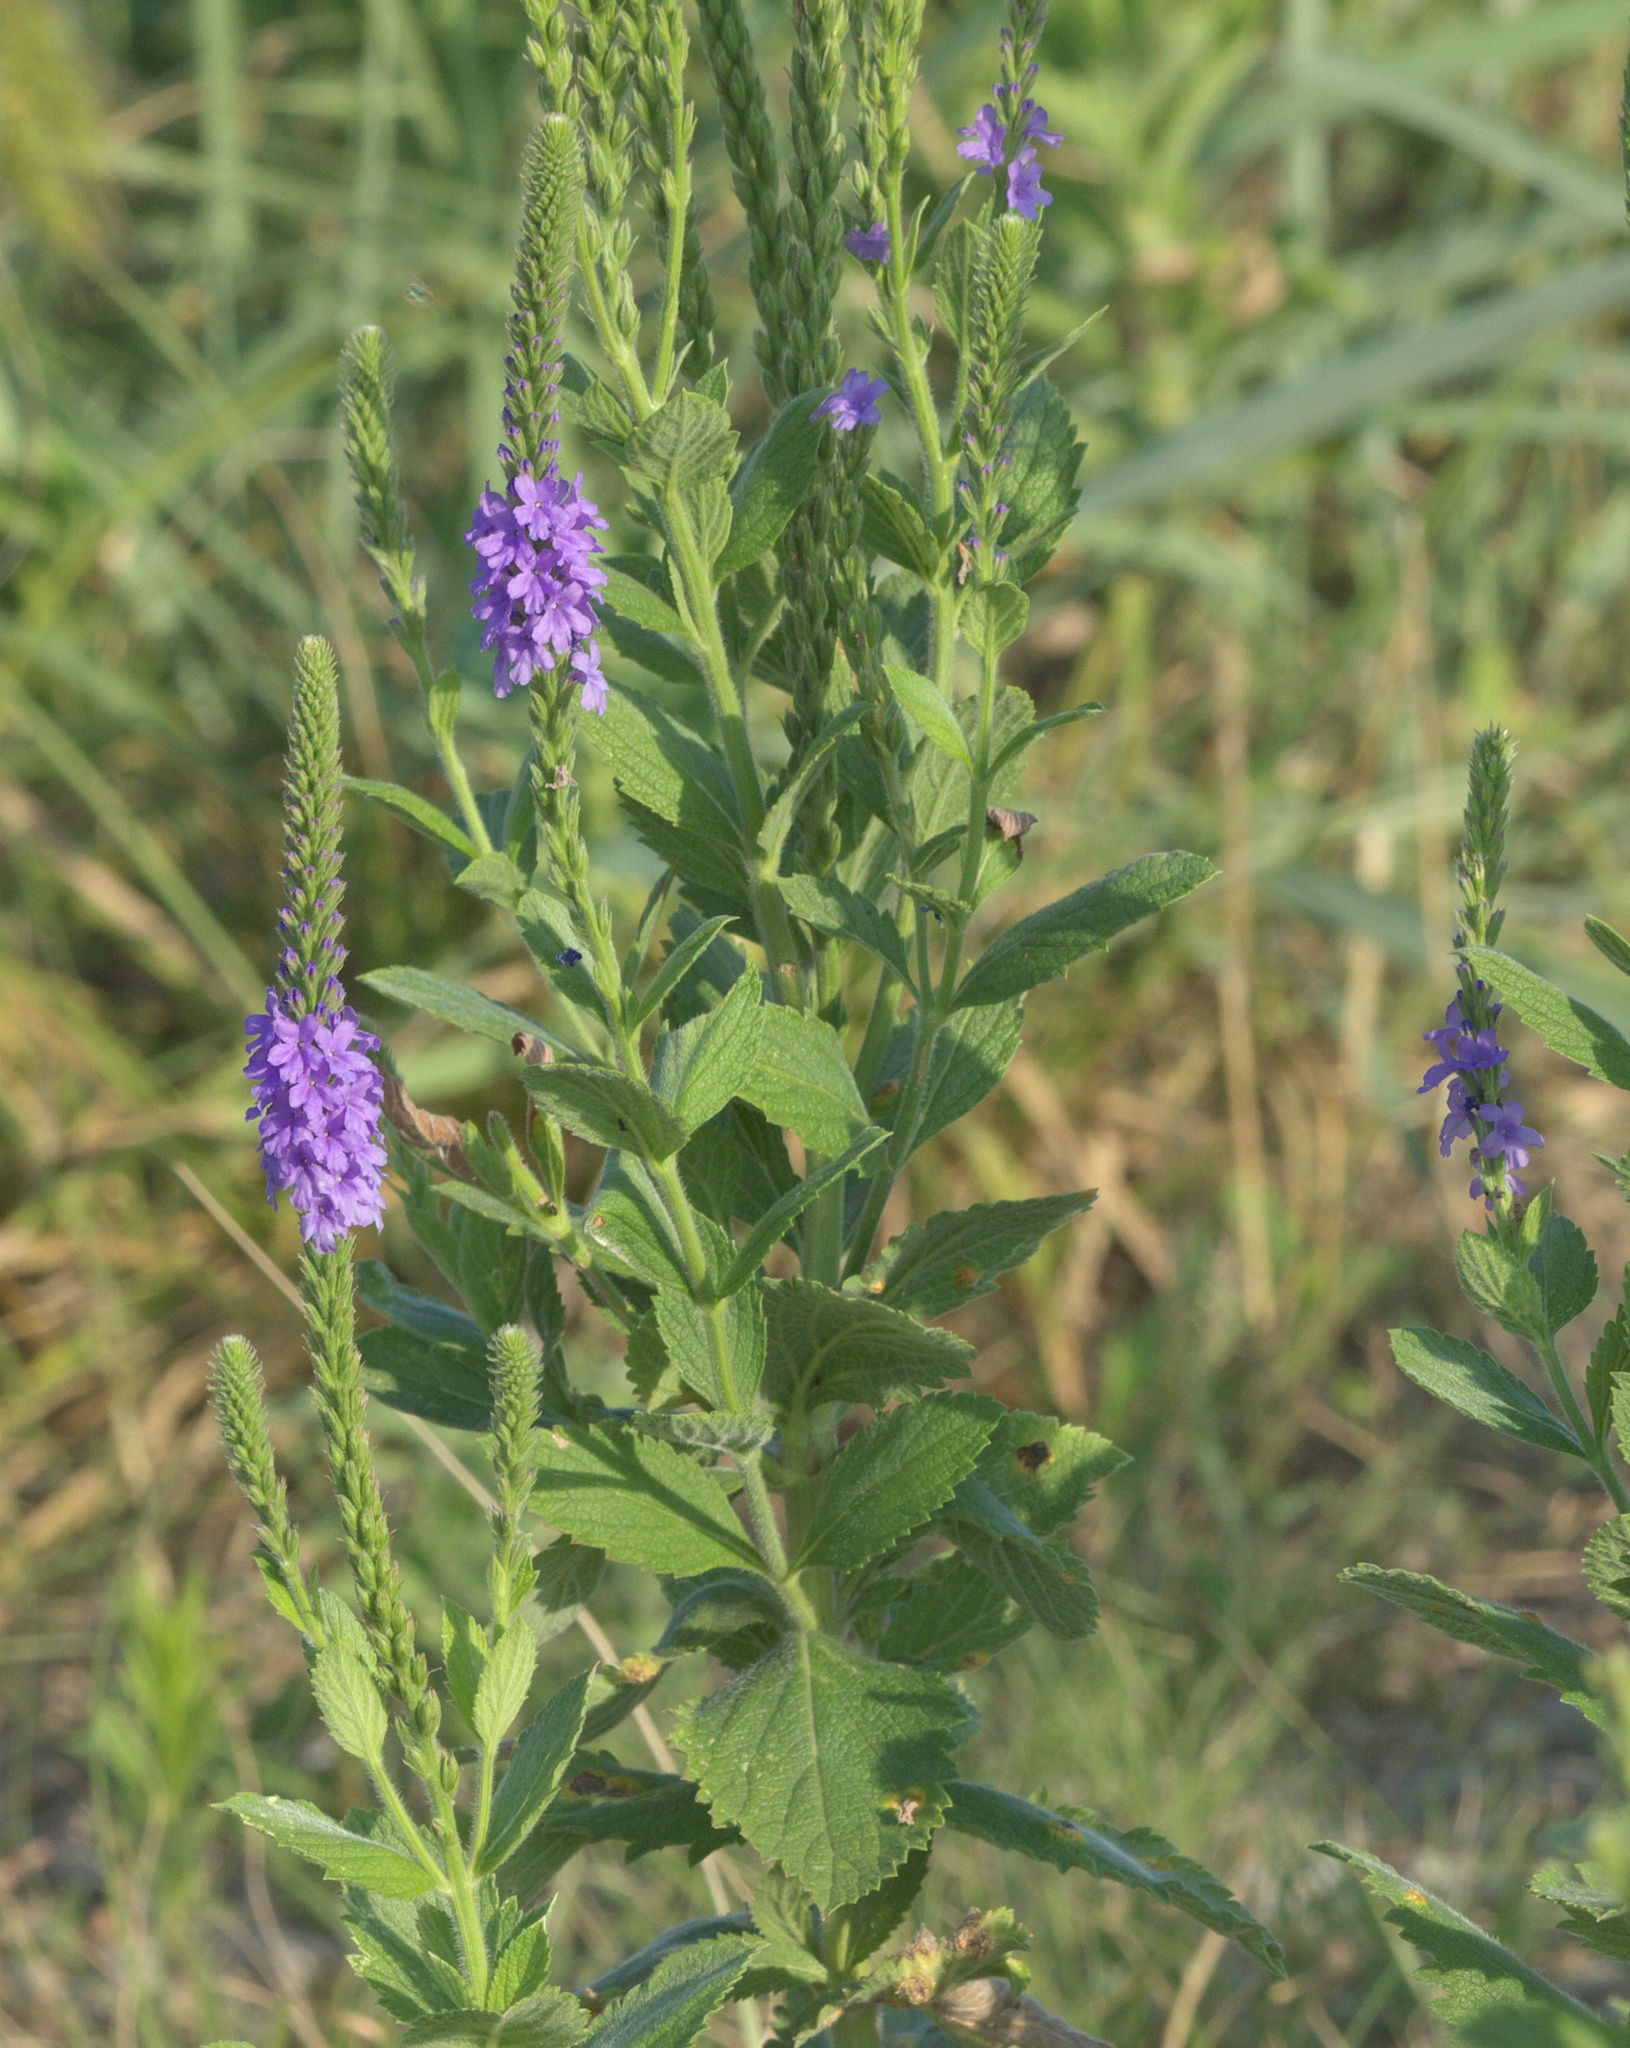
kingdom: Plantae
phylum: Tracheophyta
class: Magnoliopsida
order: Lamiales
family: Verbenaceae
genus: Verbena
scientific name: Verbena stricta
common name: Hoary vervain
